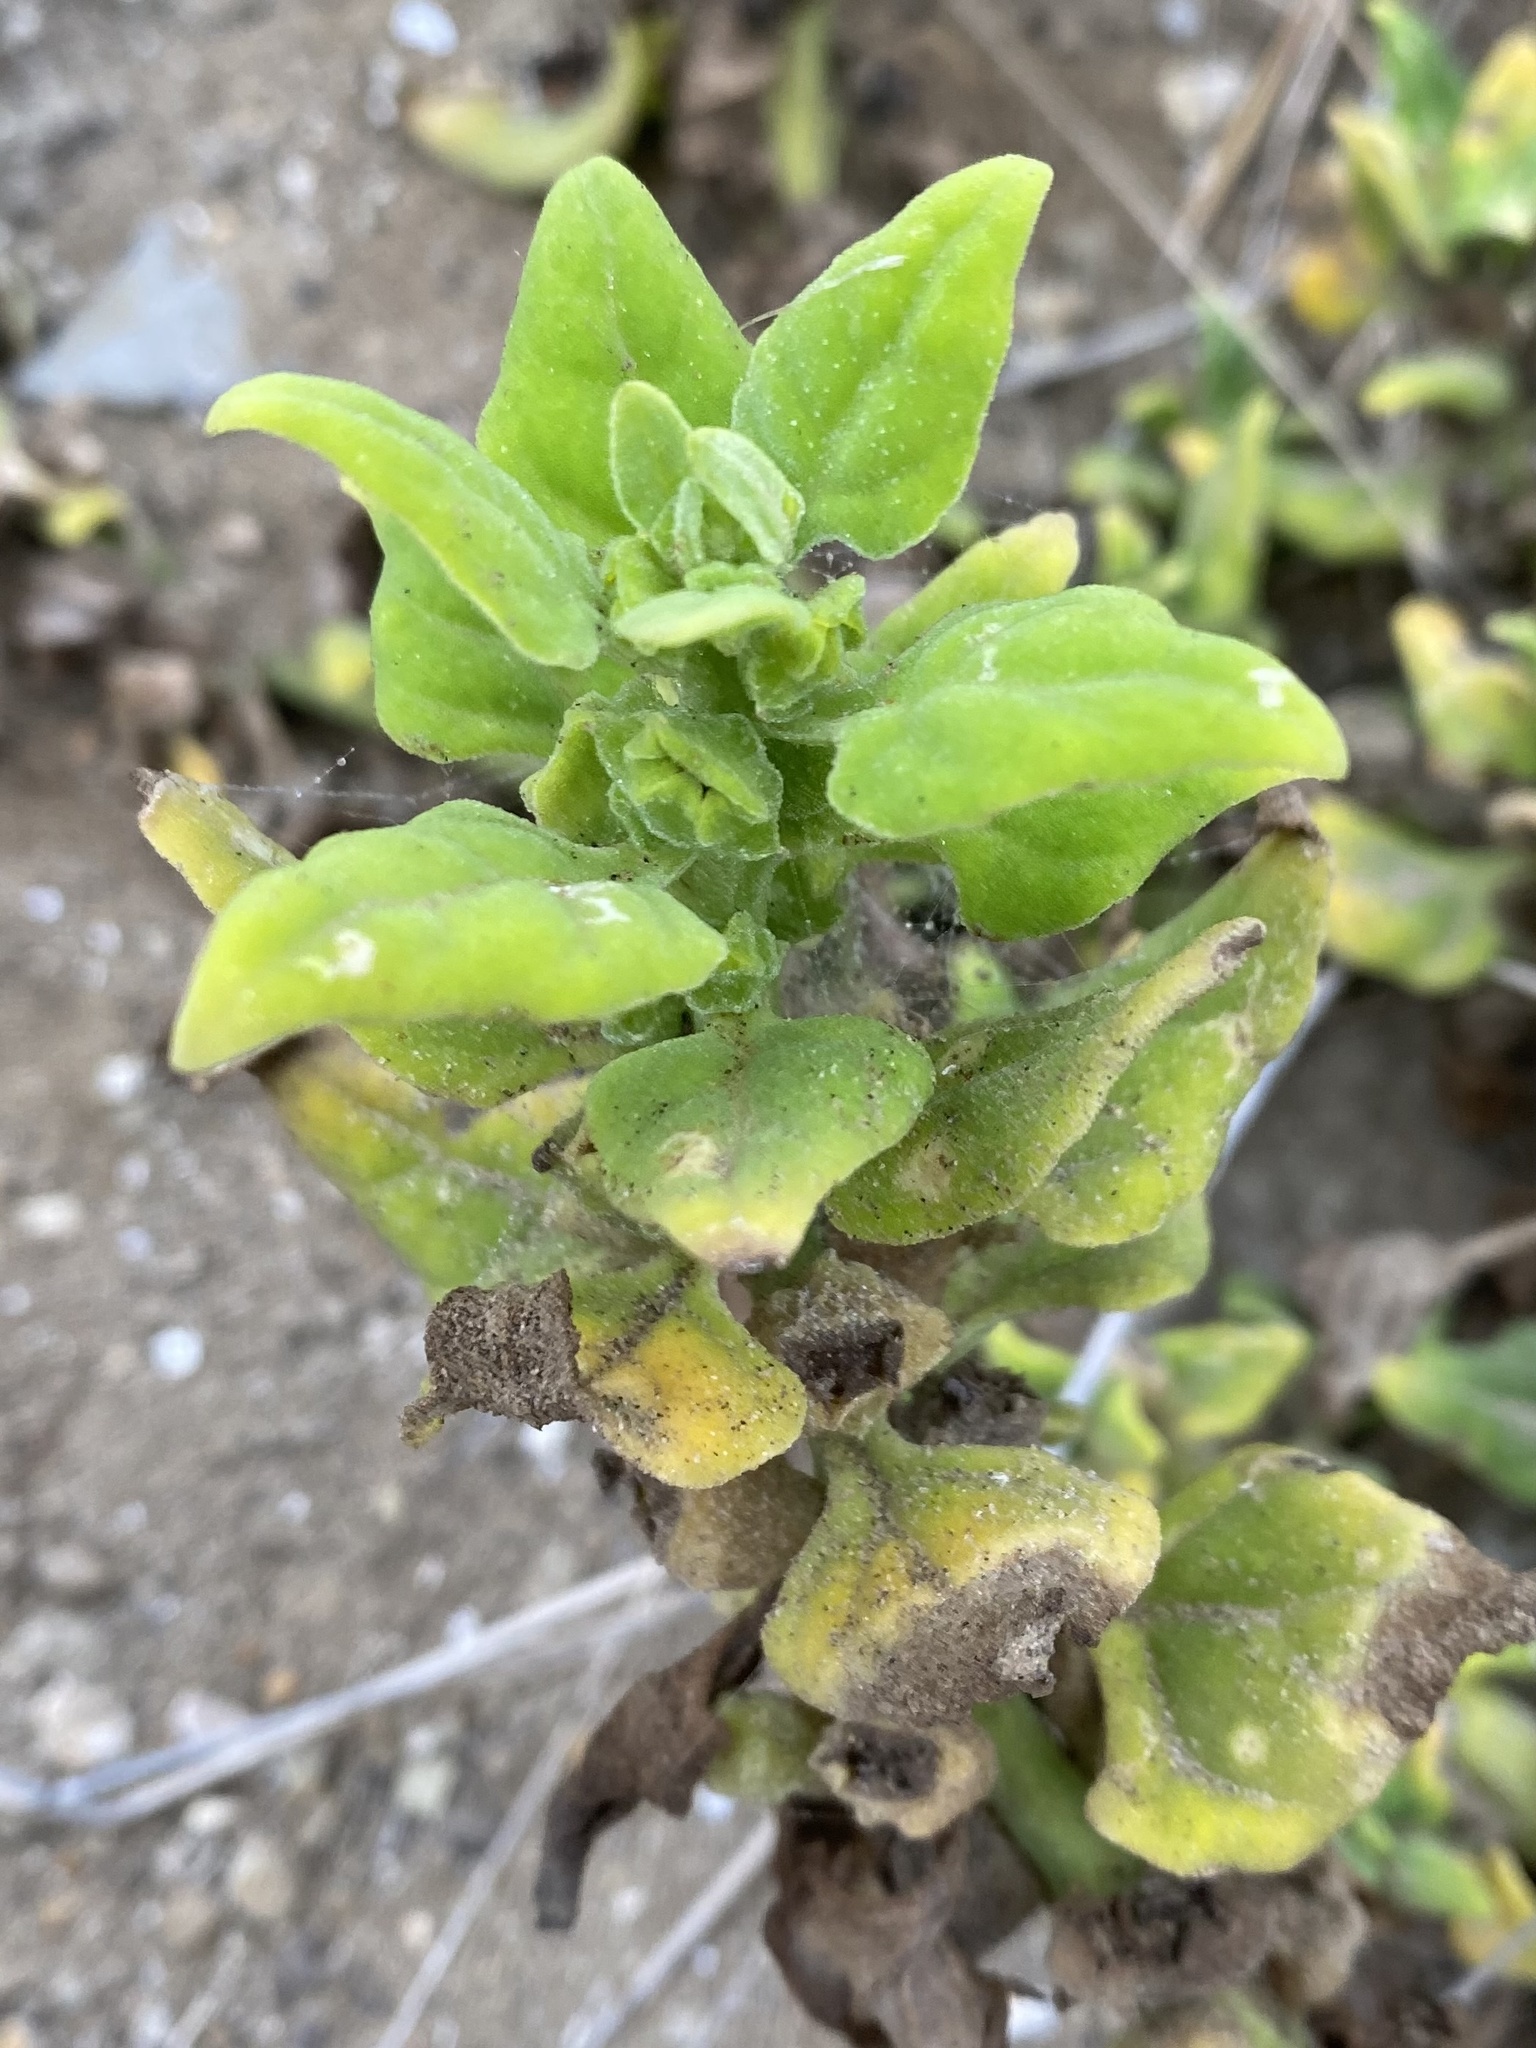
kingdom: Plantae
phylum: Tracheophyta
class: Magnoliopsida
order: Caryophyllales
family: Aizoaceae
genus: Tetragonia
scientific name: Tetragonia tetragonoides
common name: New zealand-spinach
